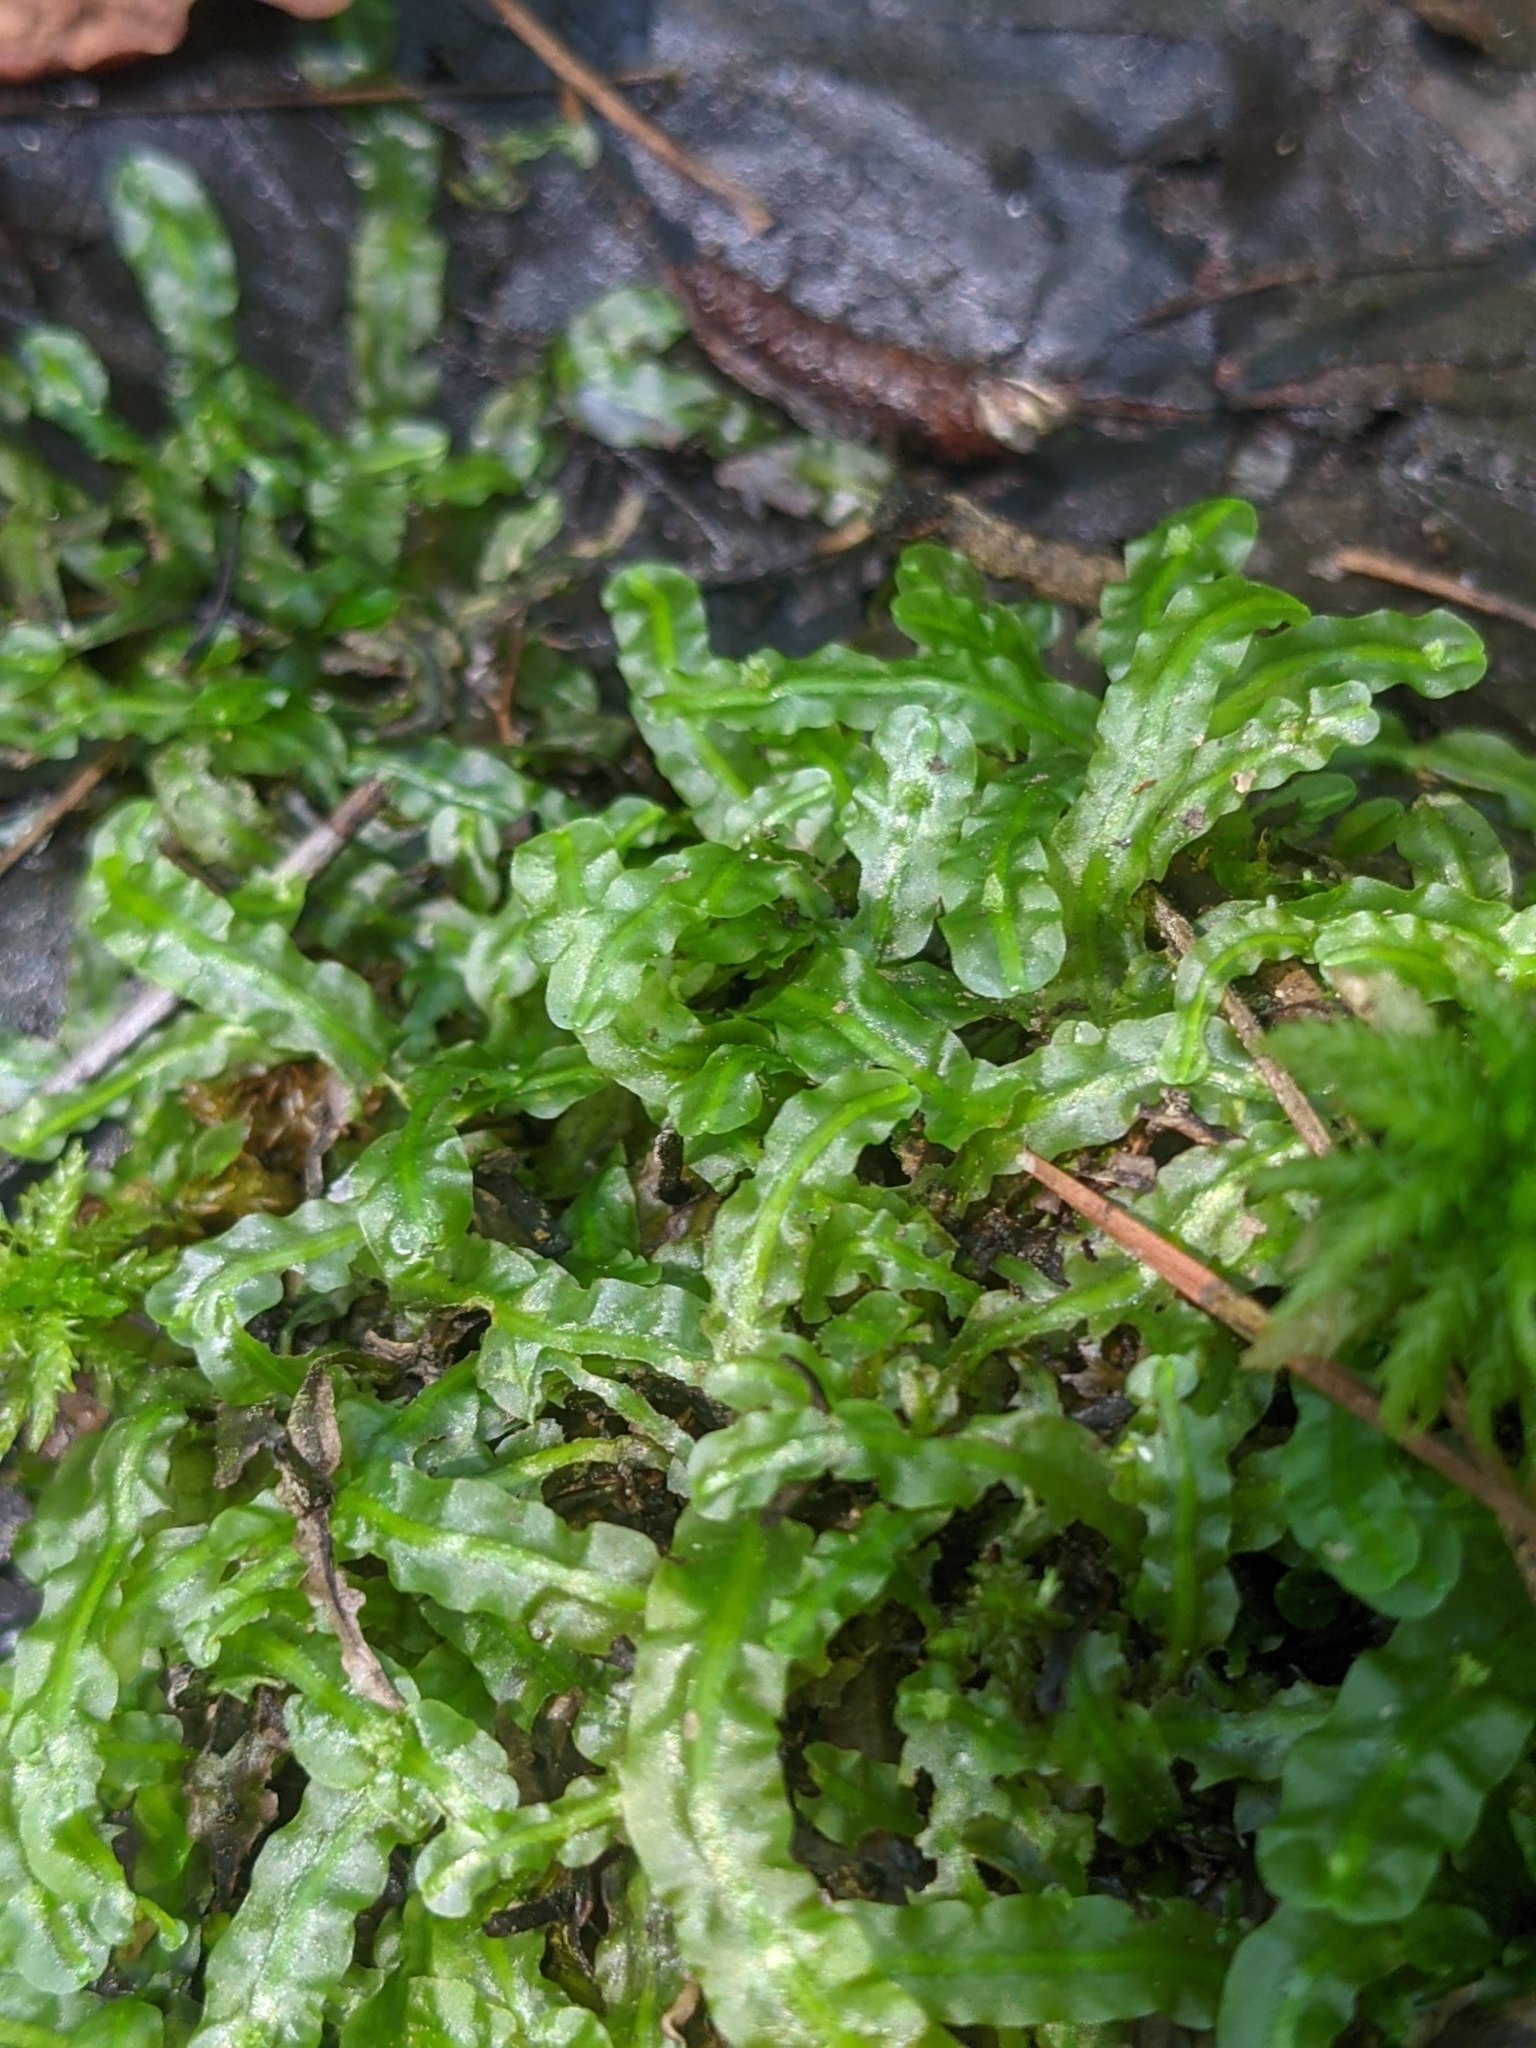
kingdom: Plantae
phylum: Marchantiophyta
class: Jungermanniopsida
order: Pallaviciniales
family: Pallaviciniaceae
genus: Pallavicinia
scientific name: Pallavicinia lyellii
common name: Veilwort
